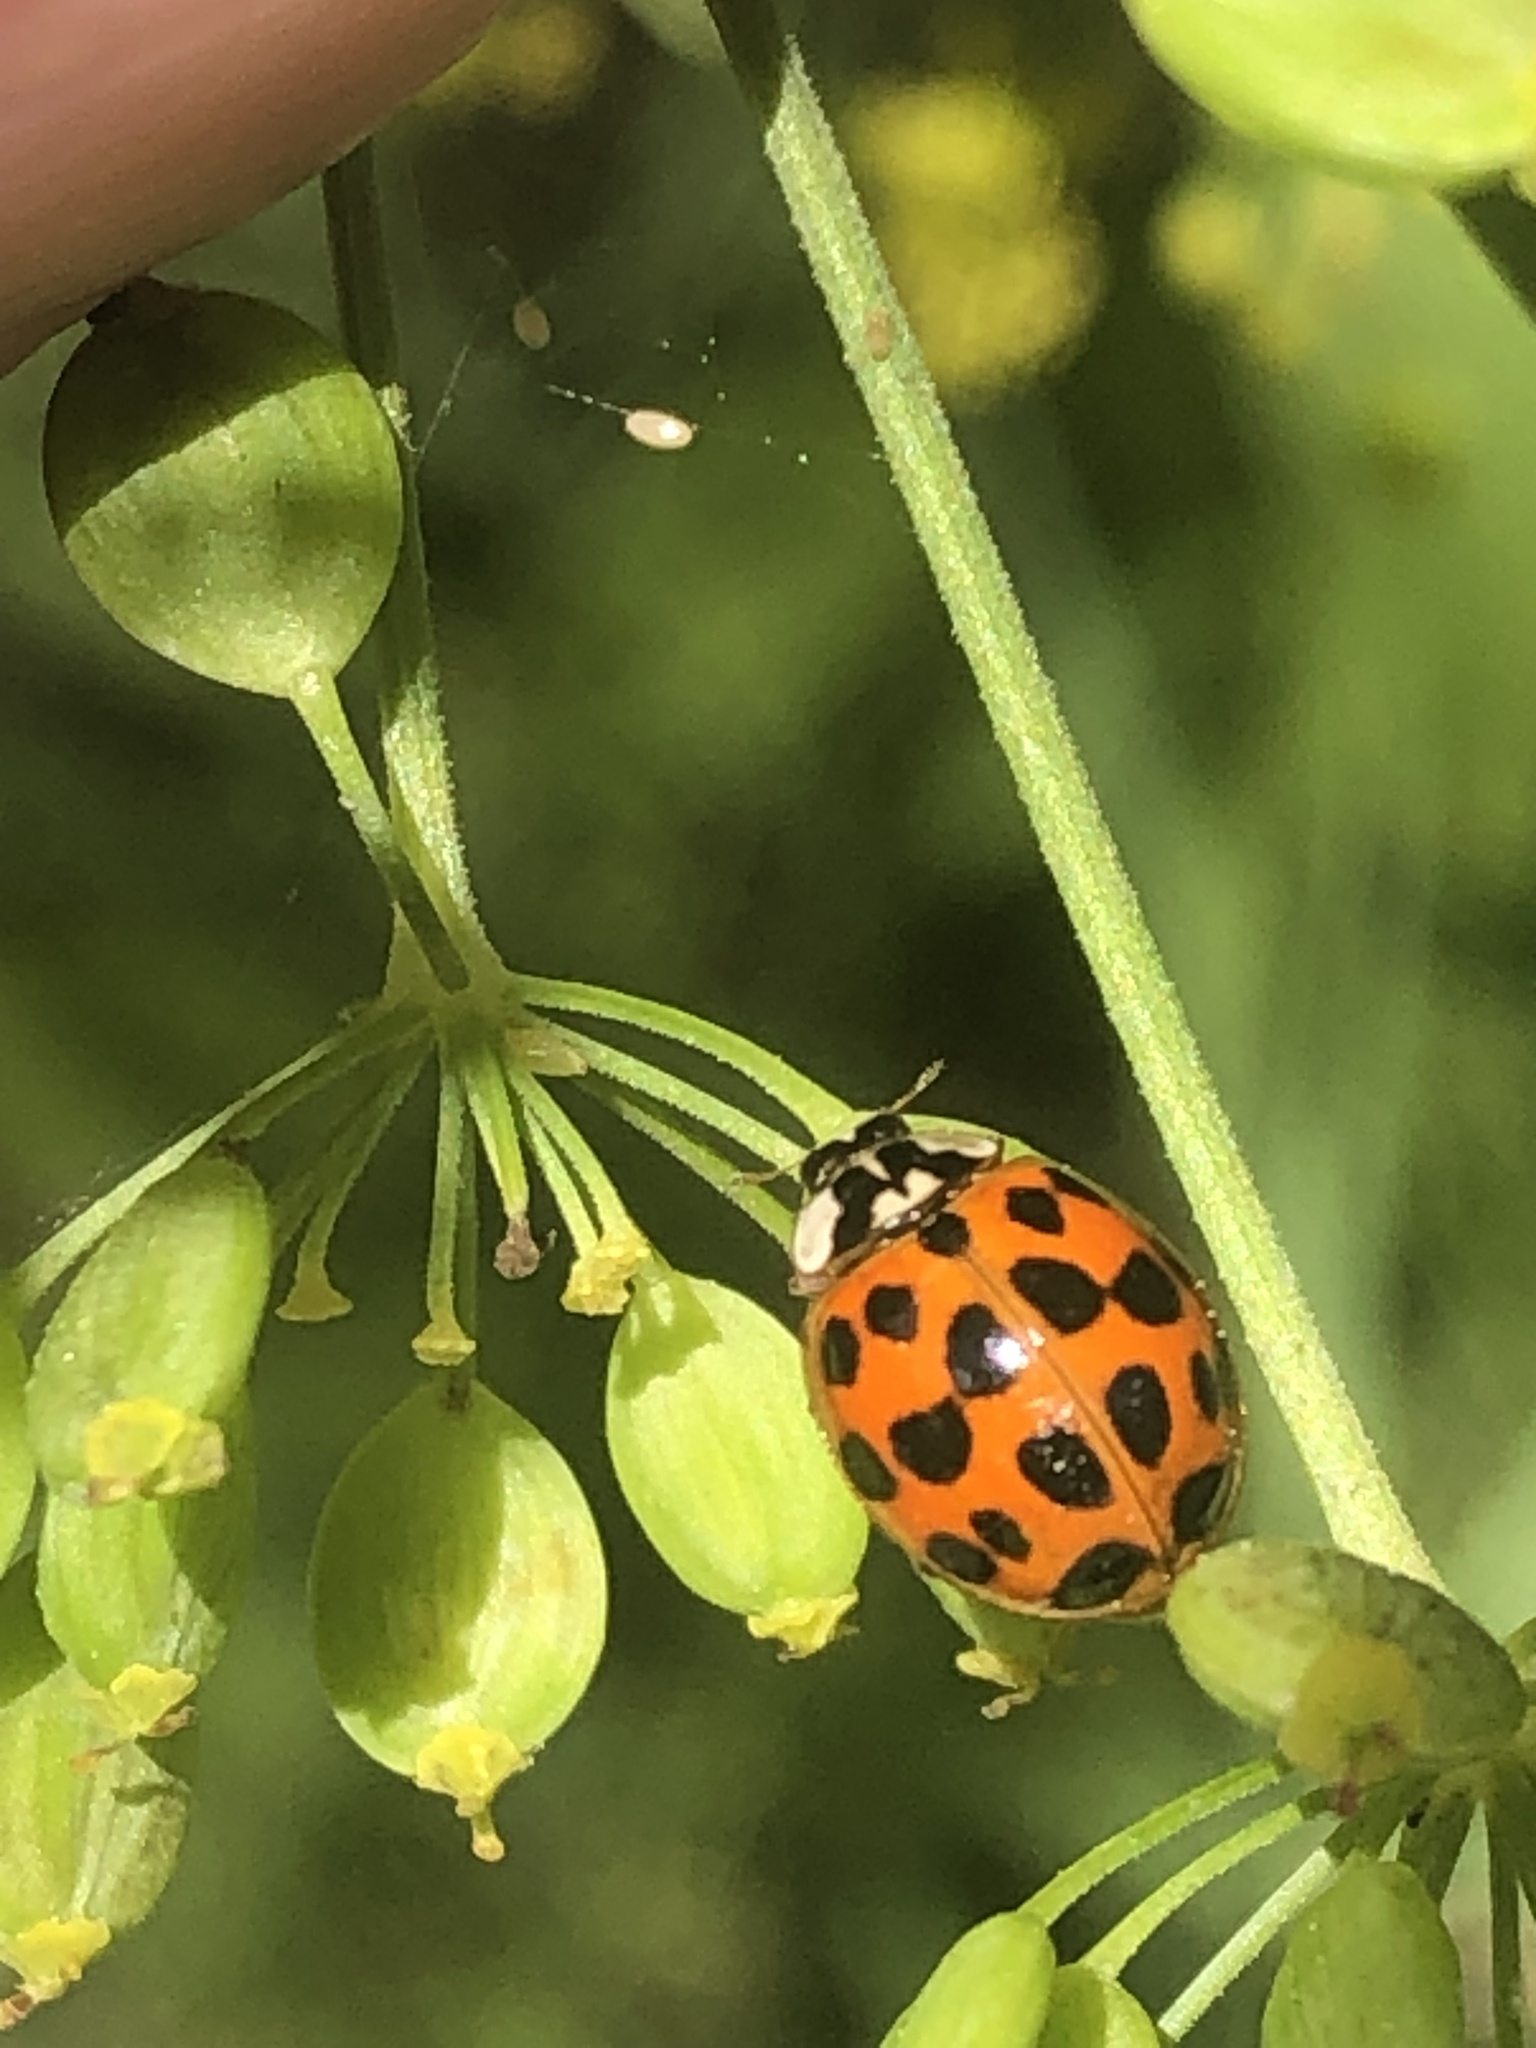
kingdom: Animalia
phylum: Arthropoda
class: Insecta
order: Coleoptera
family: Coccinellidae
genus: Harmonia
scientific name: Harmonia axyridis
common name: Harlequin ladybird
